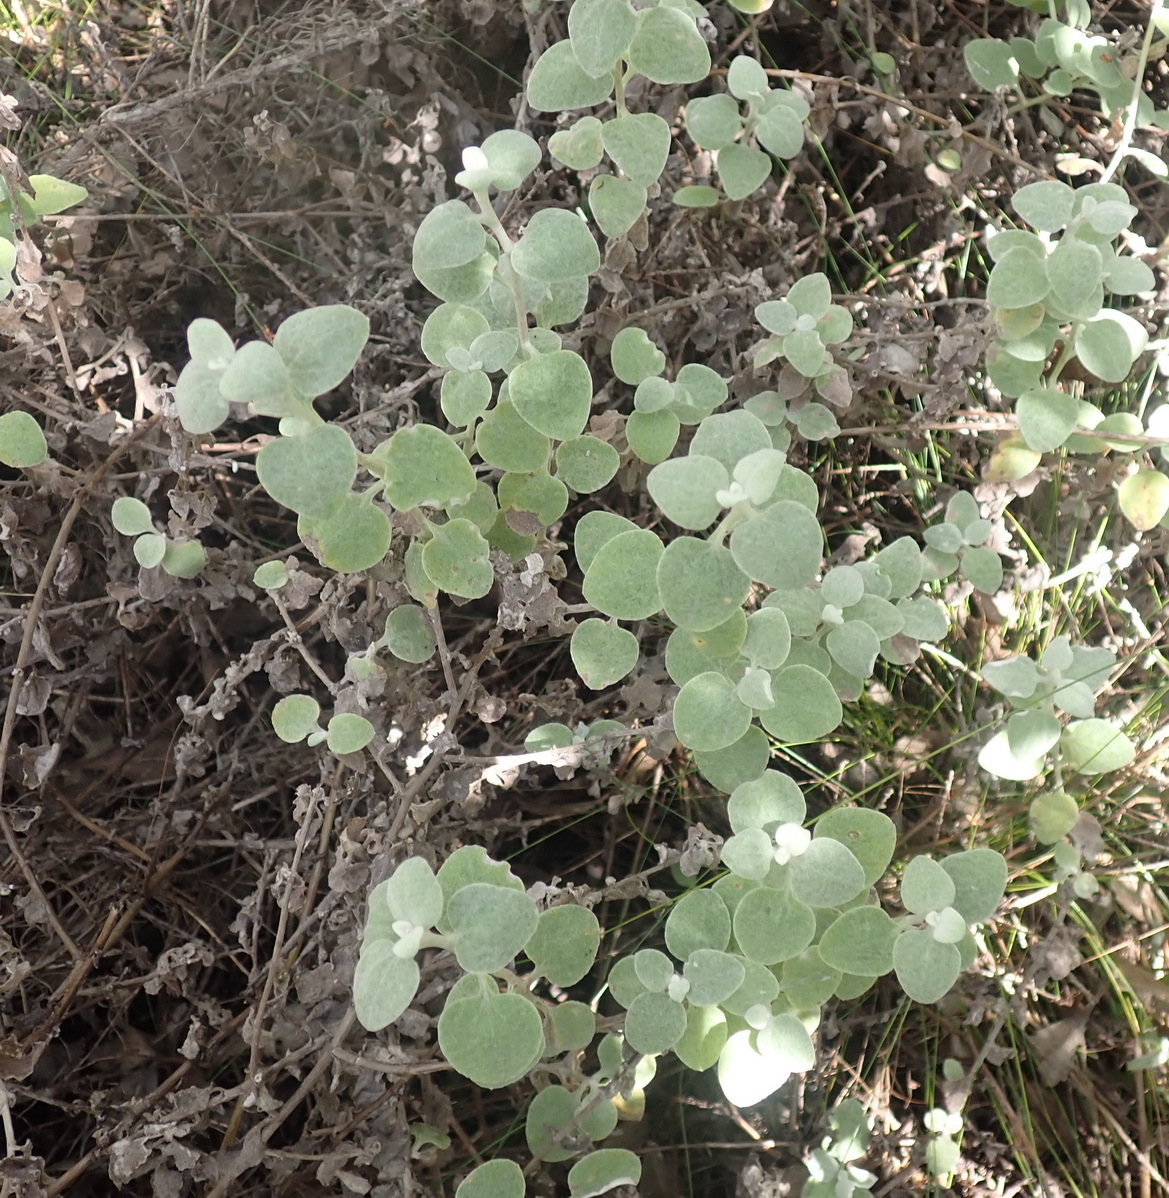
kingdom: Plantae
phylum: Tracheophyta
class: Magnoliopsida
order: Asterales
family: Asteraceae
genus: Helichrysum
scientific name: Helichrysum petiolare
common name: Licorice-plant
